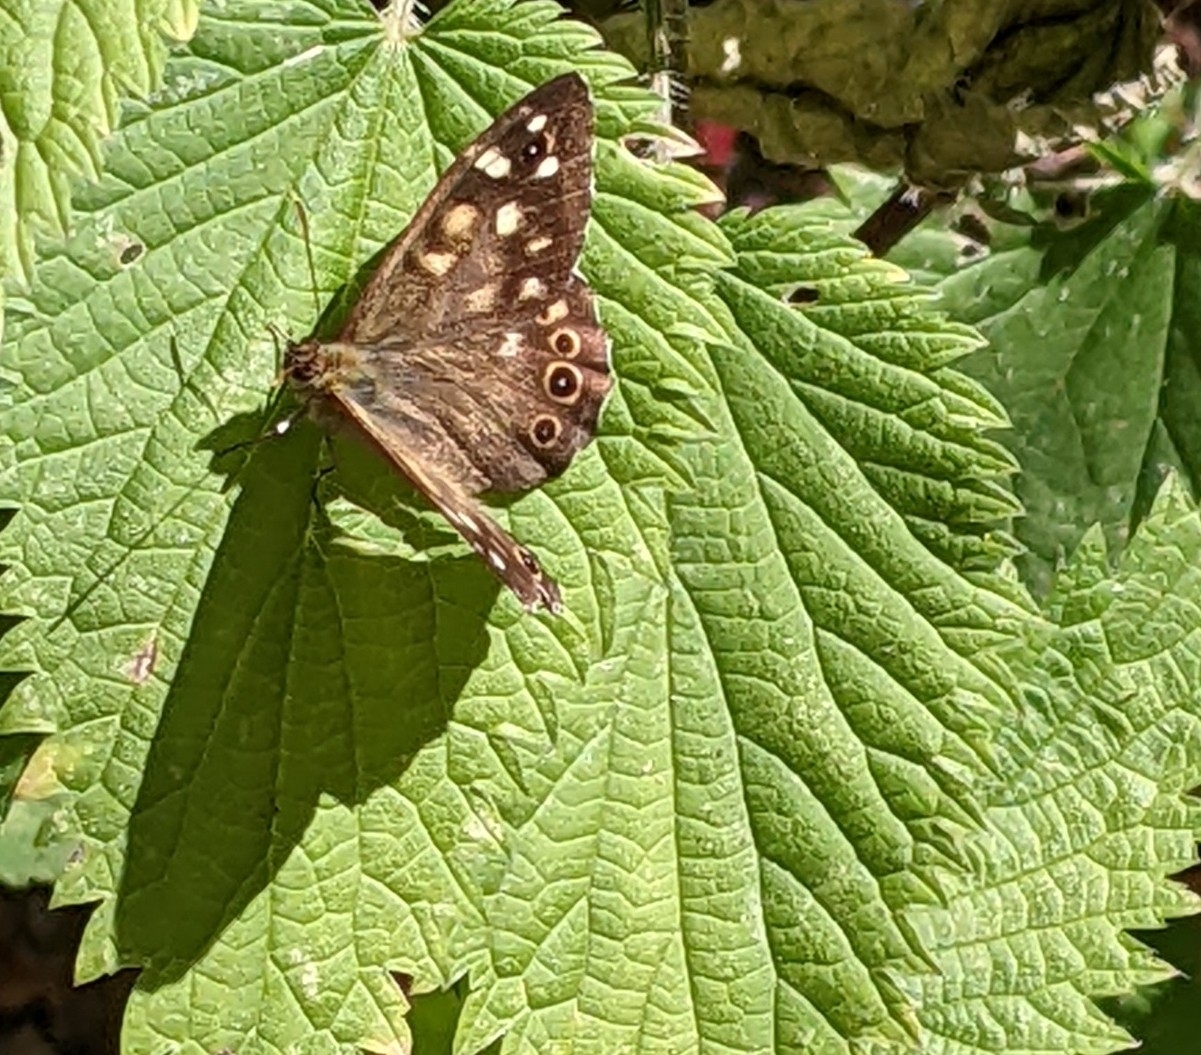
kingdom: Animalia
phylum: Arthropoda
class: Insecta
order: Lepidoptera
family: Nymphalidae
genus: Pararge
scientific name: Pararge aegeria
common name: Speckled wood
